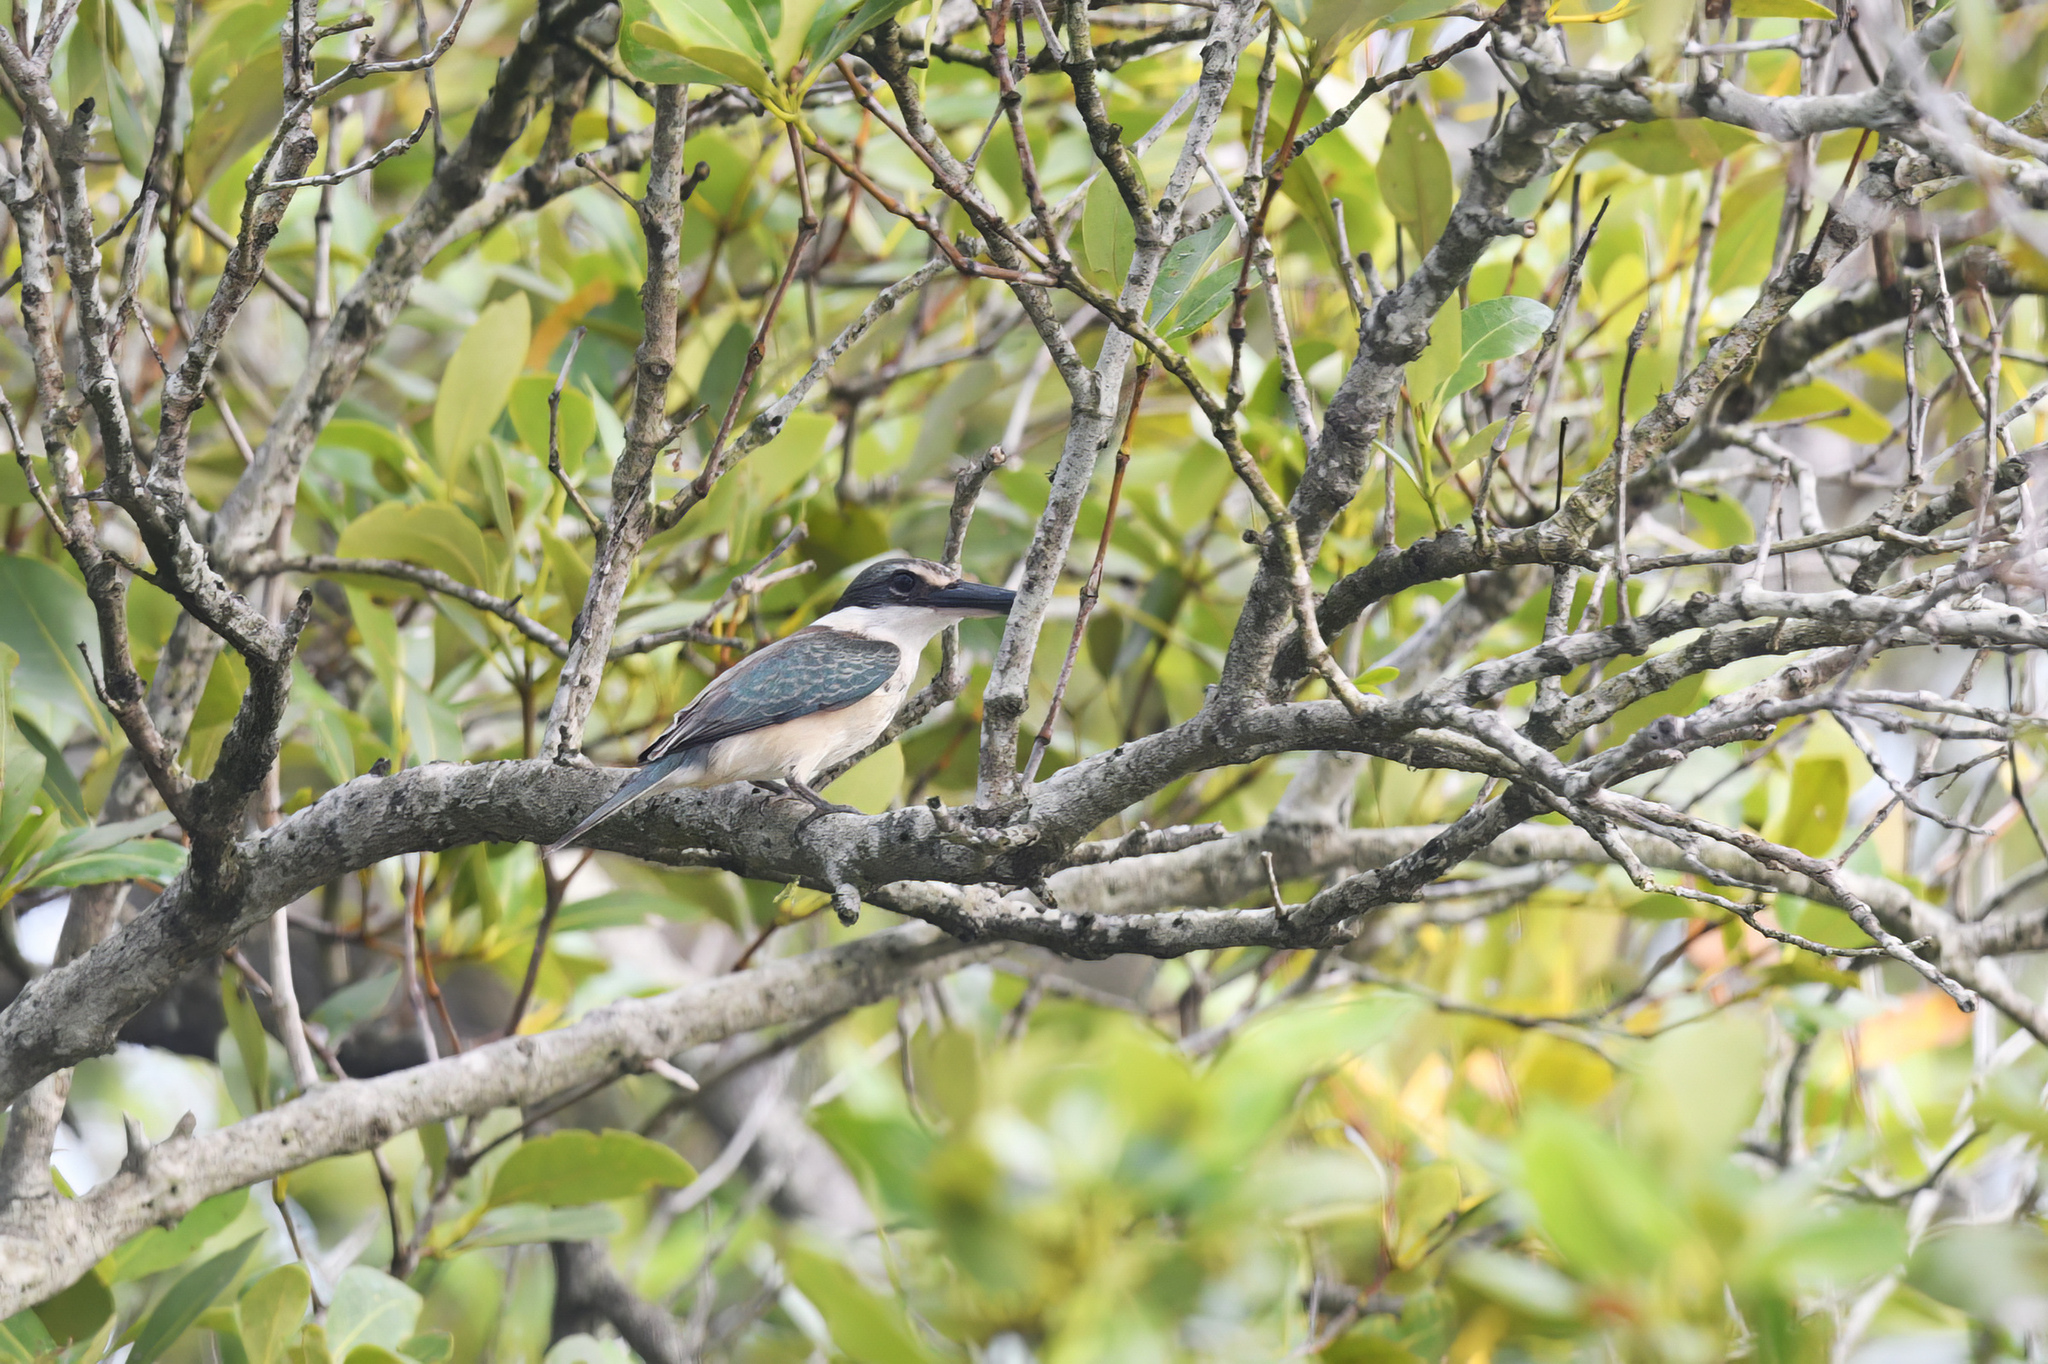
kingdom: Animalia
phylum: Chordata
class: Aves
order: Coraciiformes
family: Alcedinidae
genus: Todiramphus
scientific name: Todiramphus sanctus
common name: Sacred kingfisher
